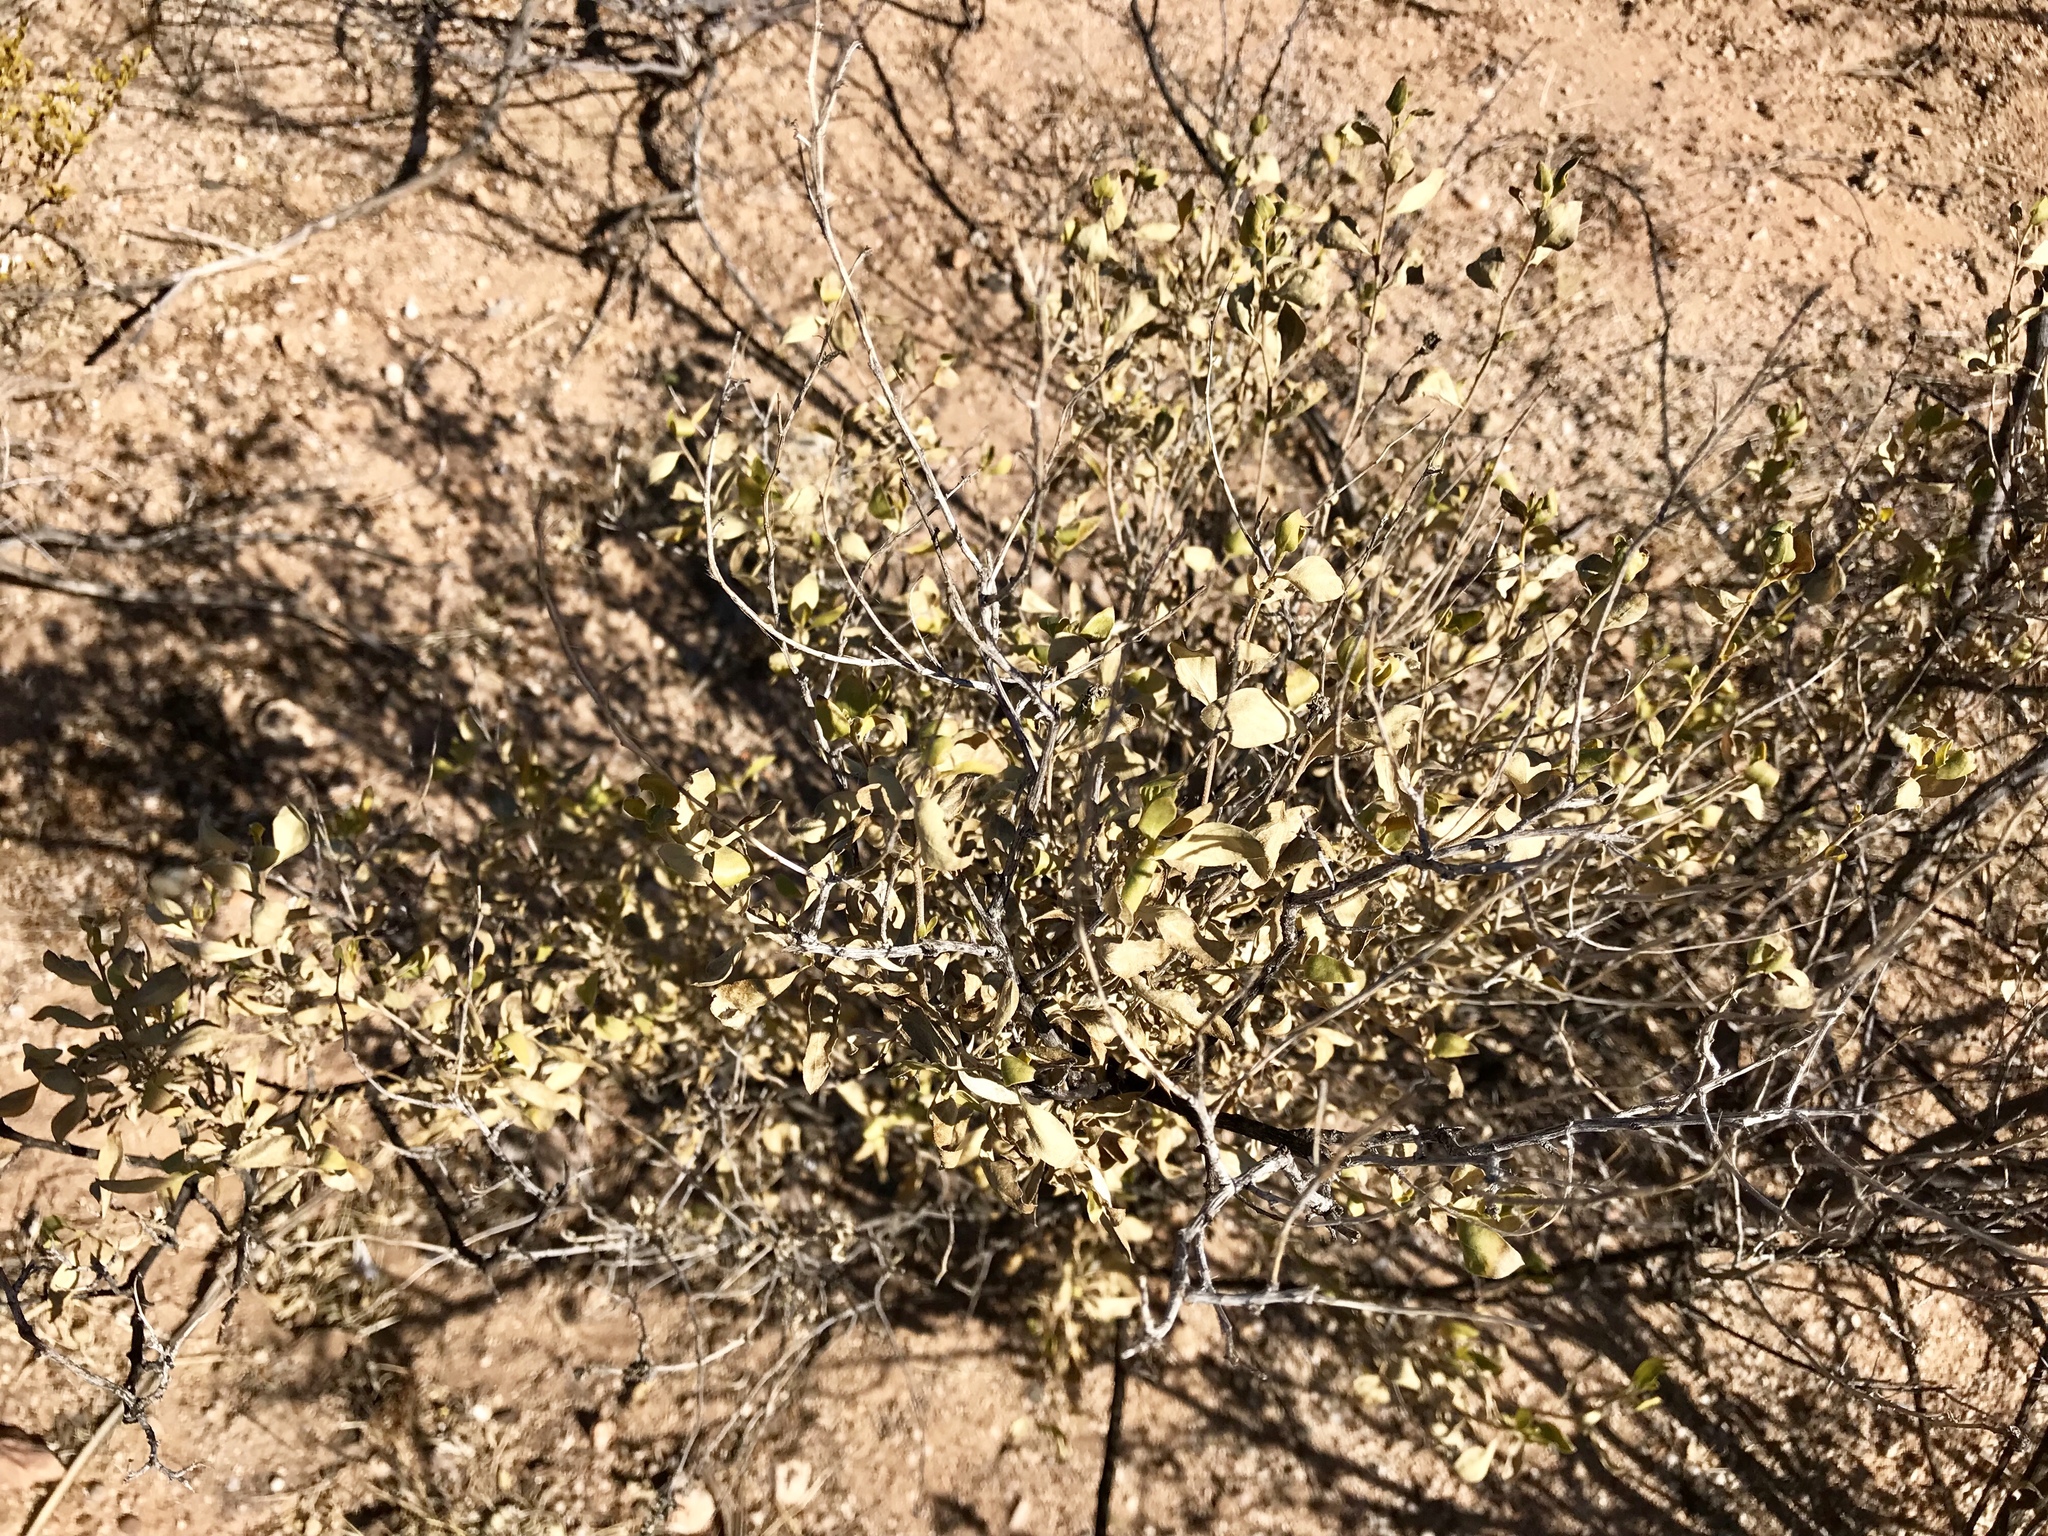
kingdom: Plantae
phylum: Tracheophyta
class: Magnoliopsida
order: Asterales
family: Asteraceae
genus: Flourensia
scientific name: Flourensia cernua
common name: Varnishbush
